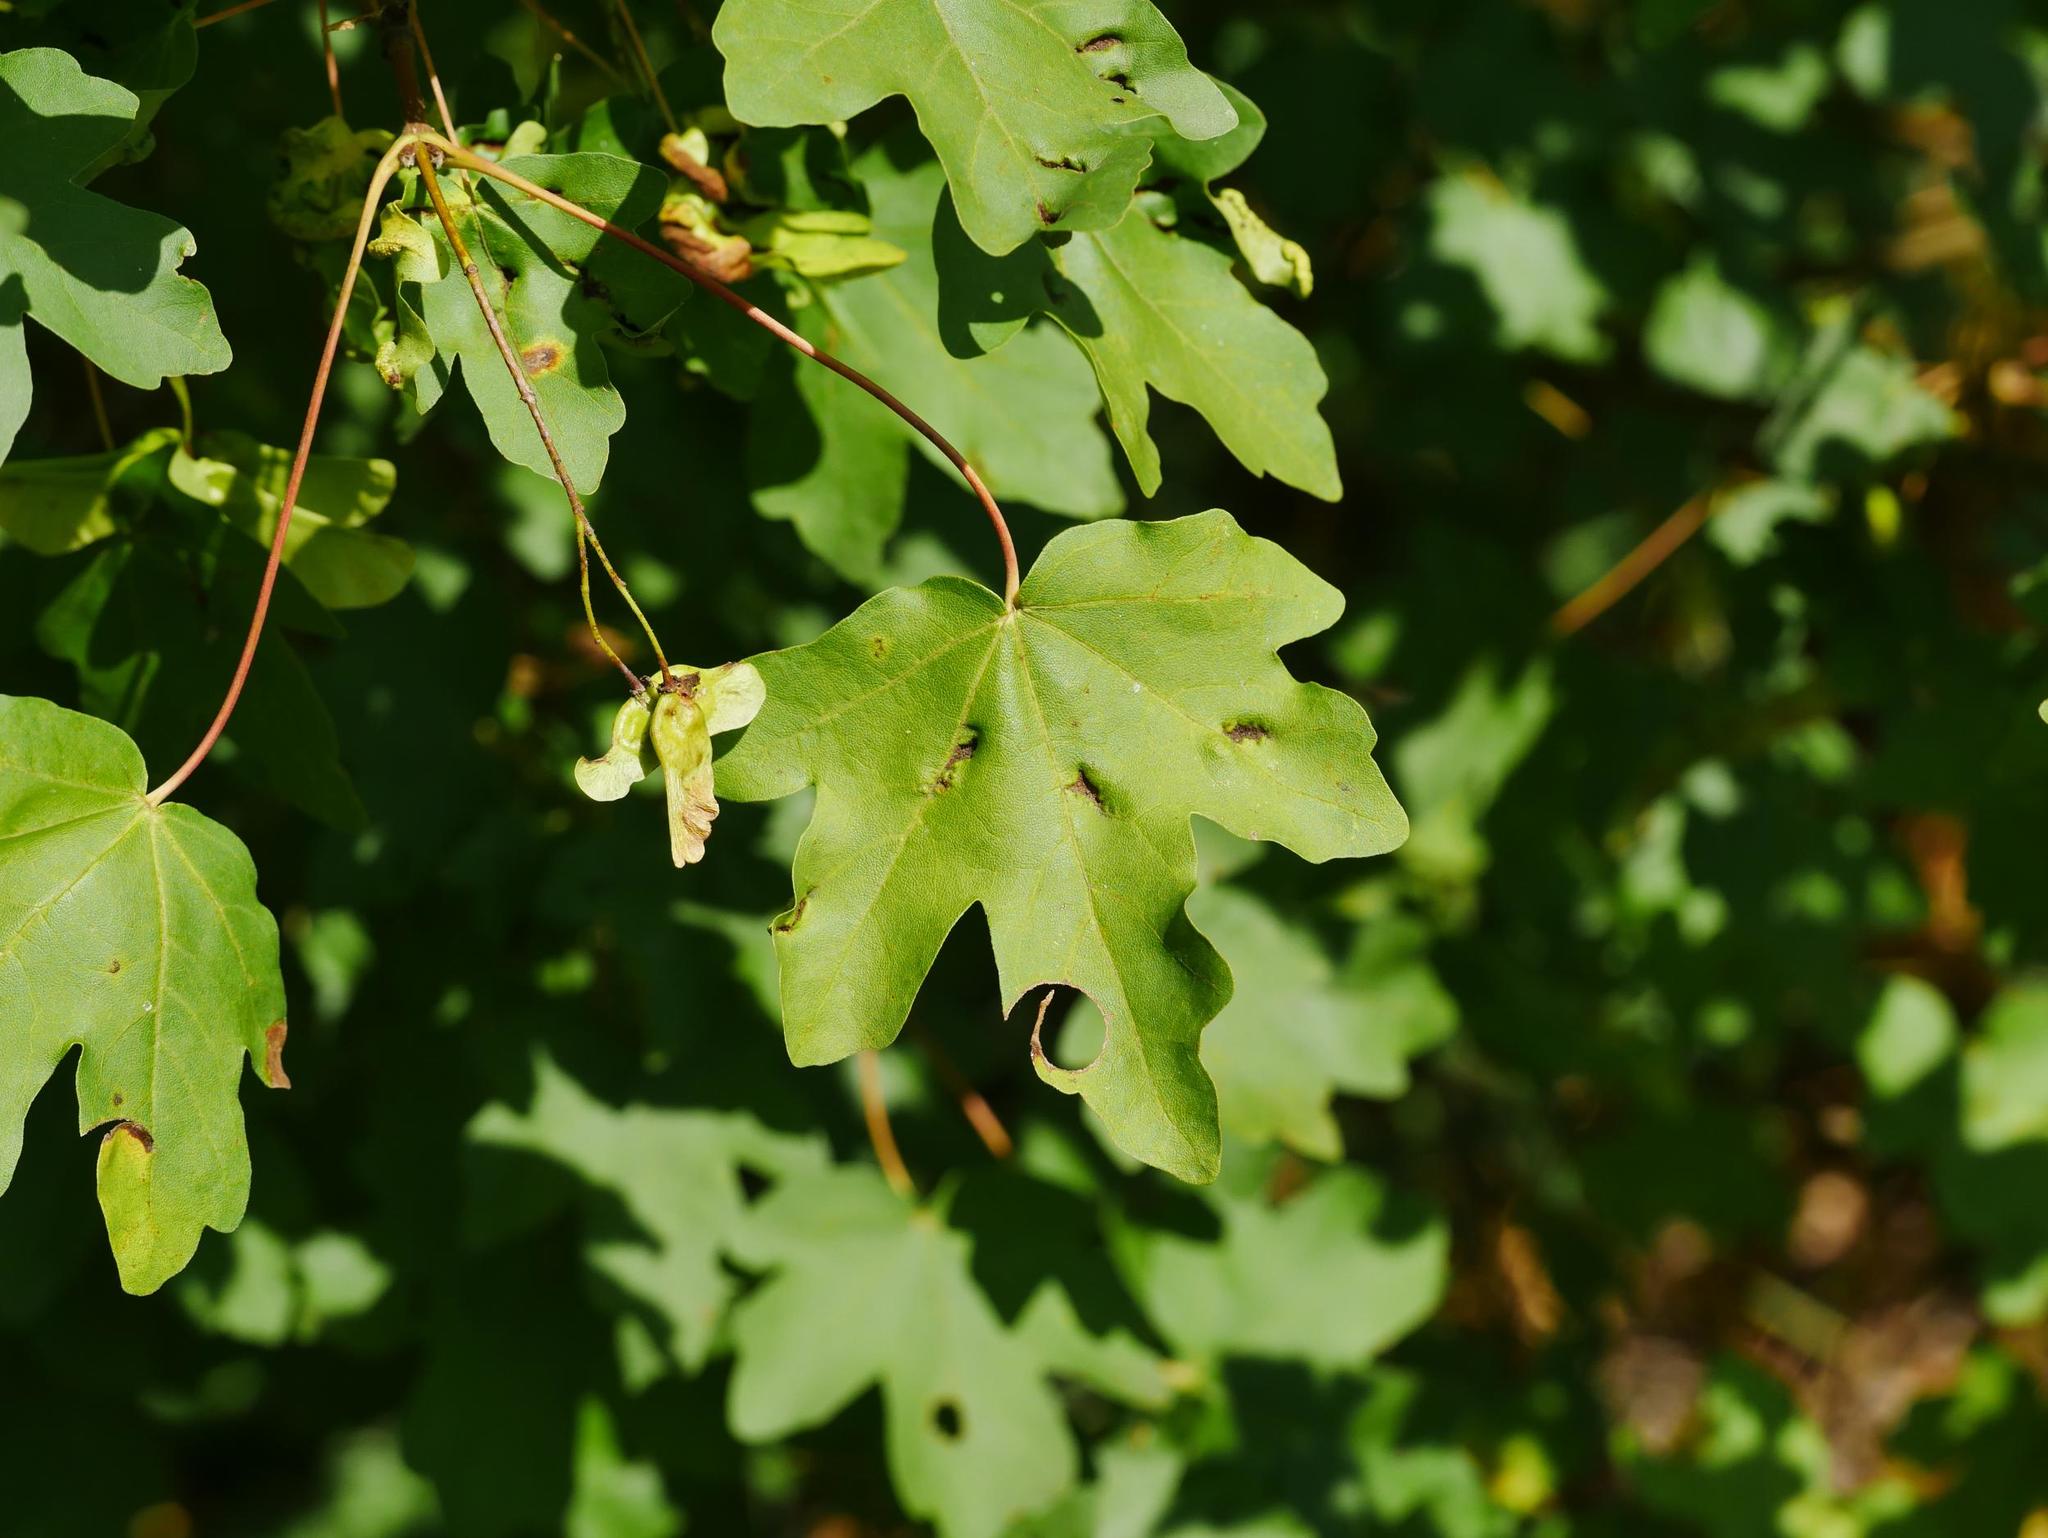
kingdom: Plantae
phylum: Tracheophyta
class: Magnoliopsida
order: Sapindales
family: Sapindaceae
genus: Acer
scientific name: Acer campestre
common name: Field maple
